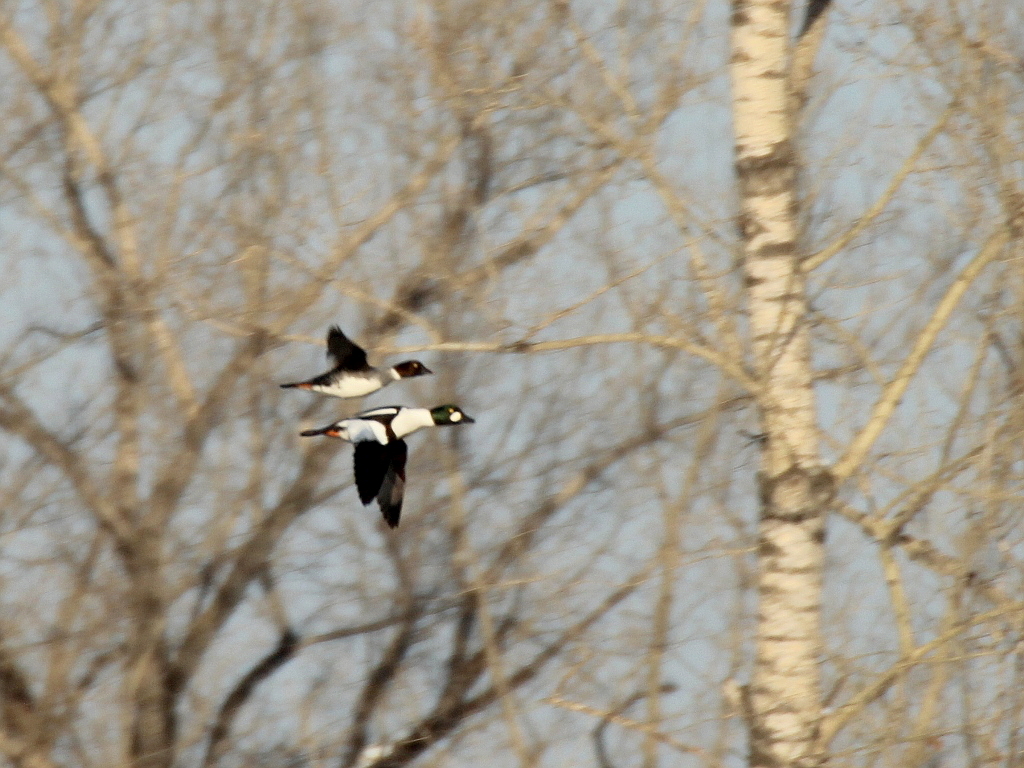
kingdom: Animalia
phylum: Chordata
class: Aves
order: Anseriformes
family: Anatidae
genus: Bucephala
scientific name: Bucephala clangula
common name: Common goldeneye
